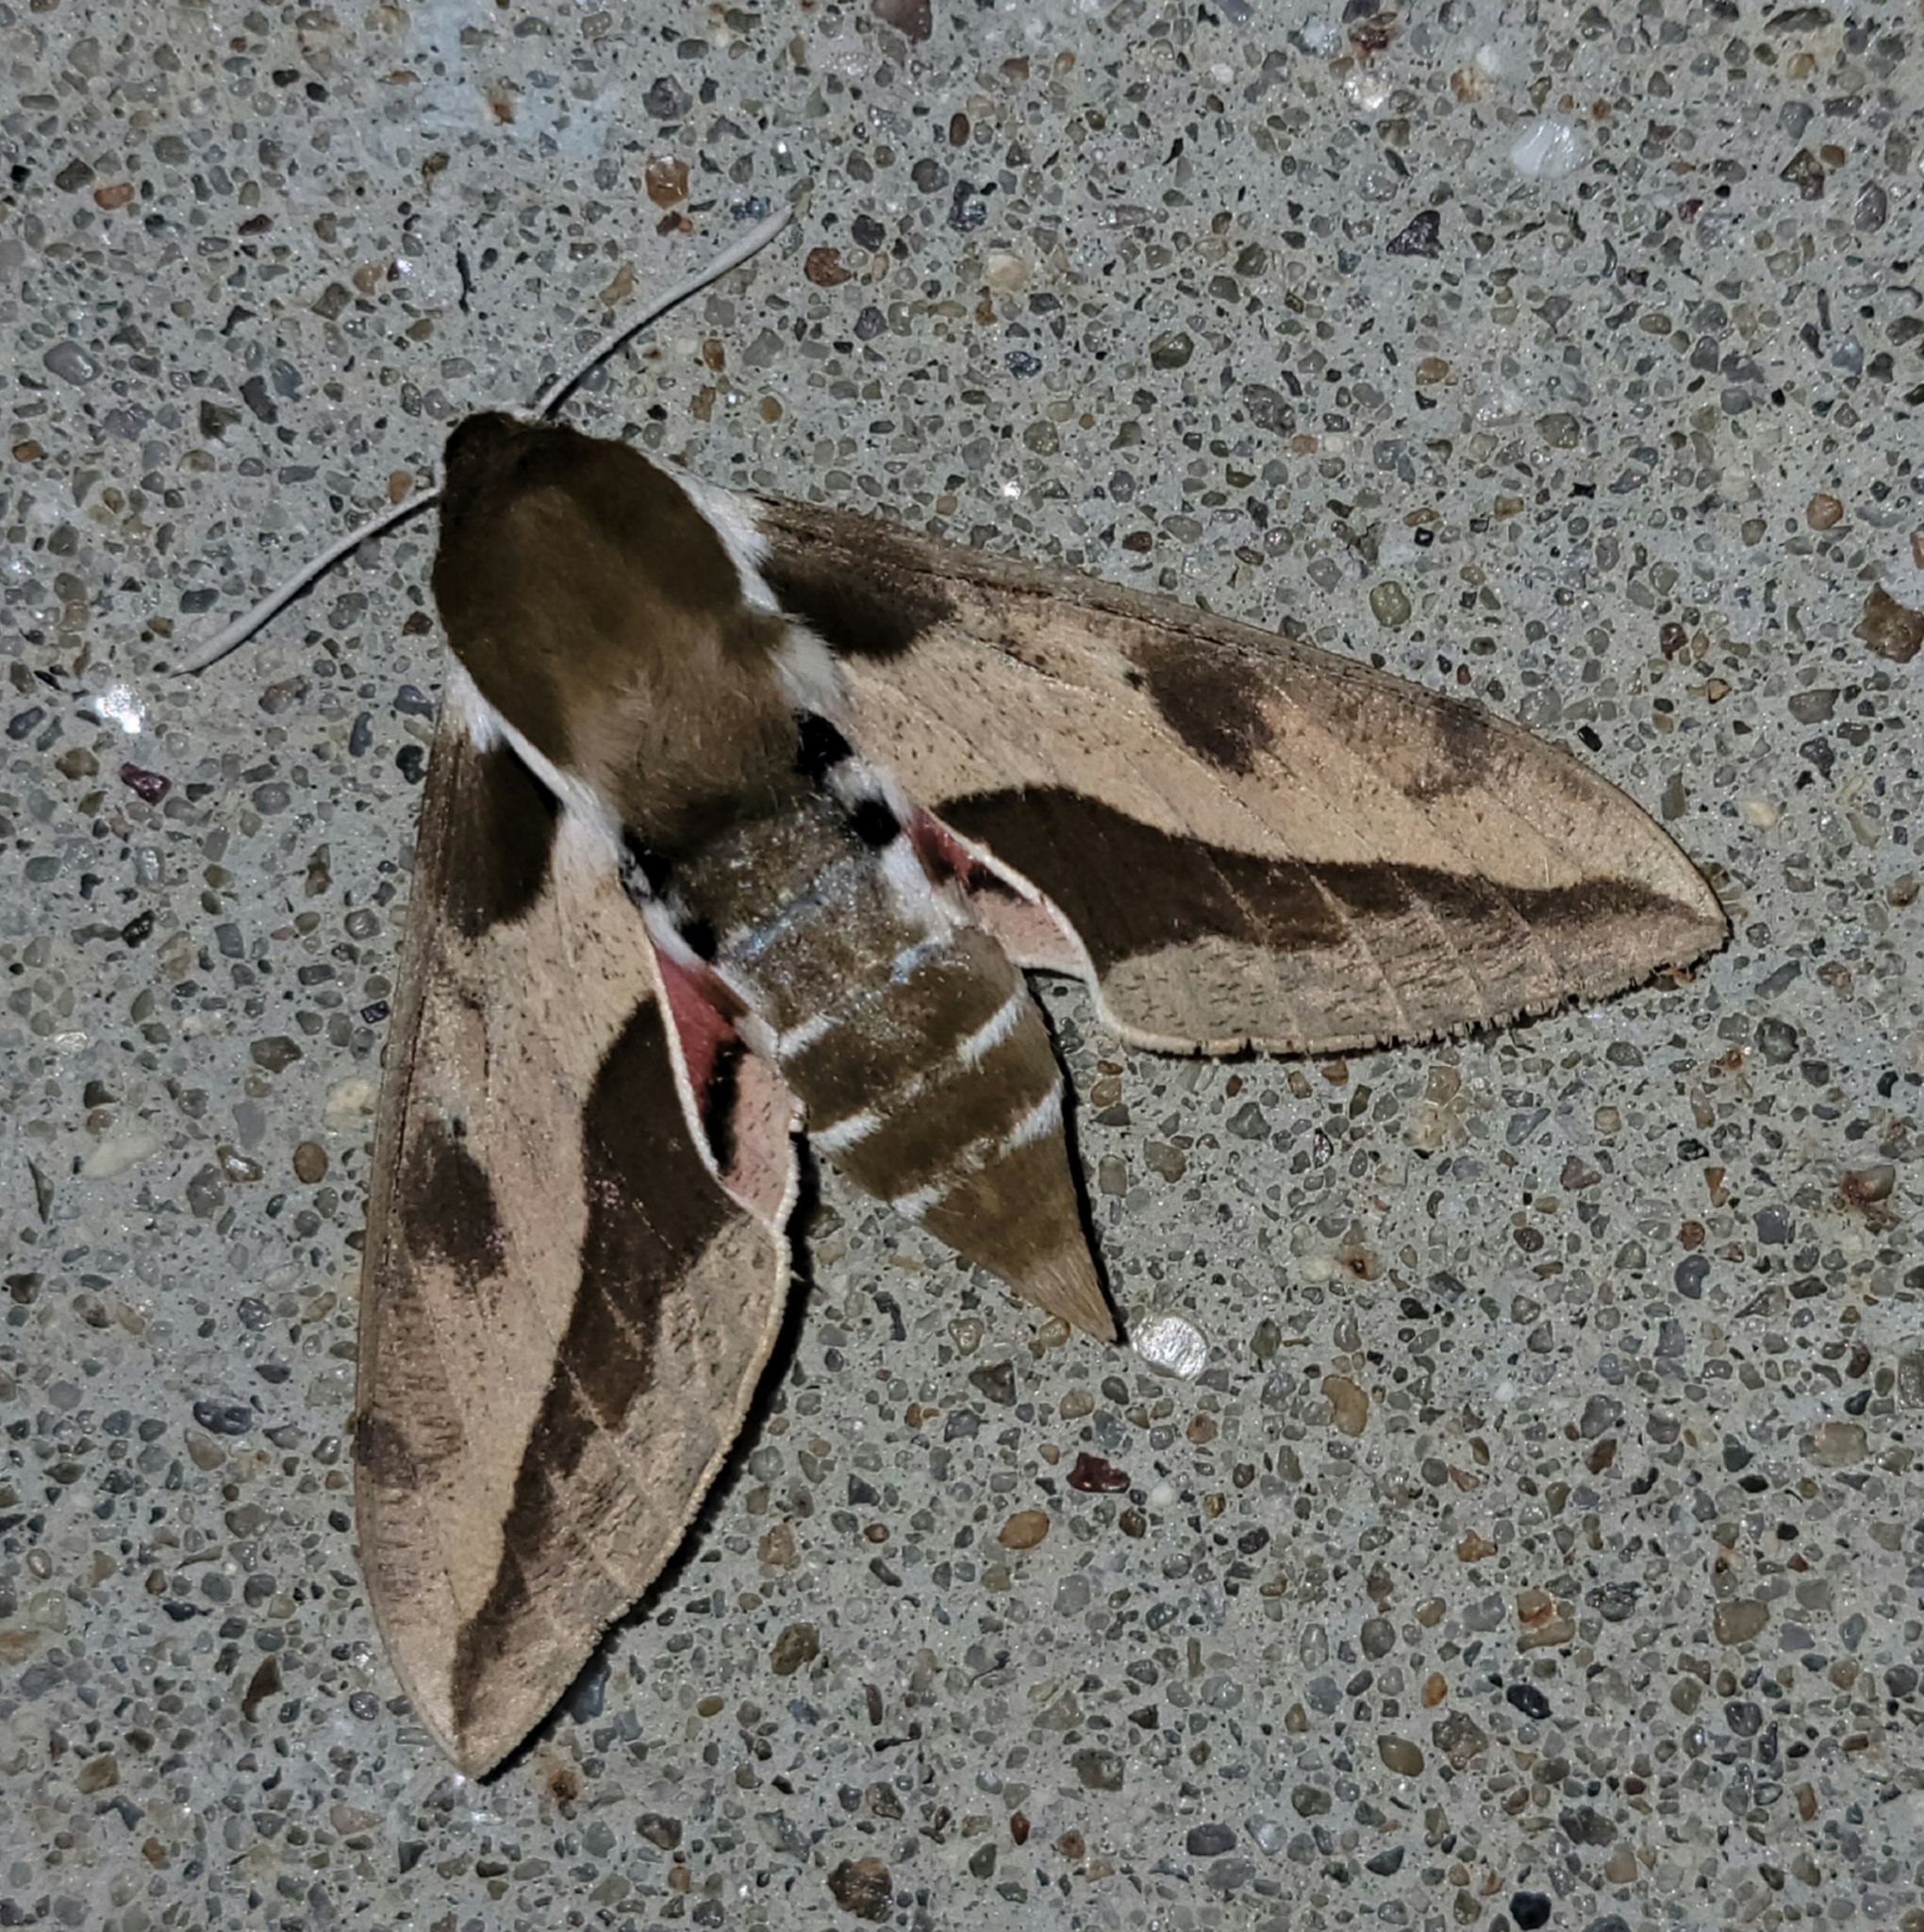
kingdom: Animalia
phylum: Arthropoda
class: Insecta
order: Lepidoptera
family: Sphingidae
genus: Hyles
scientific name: Hyles euphorbiae
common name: Spurge hawk-moth
